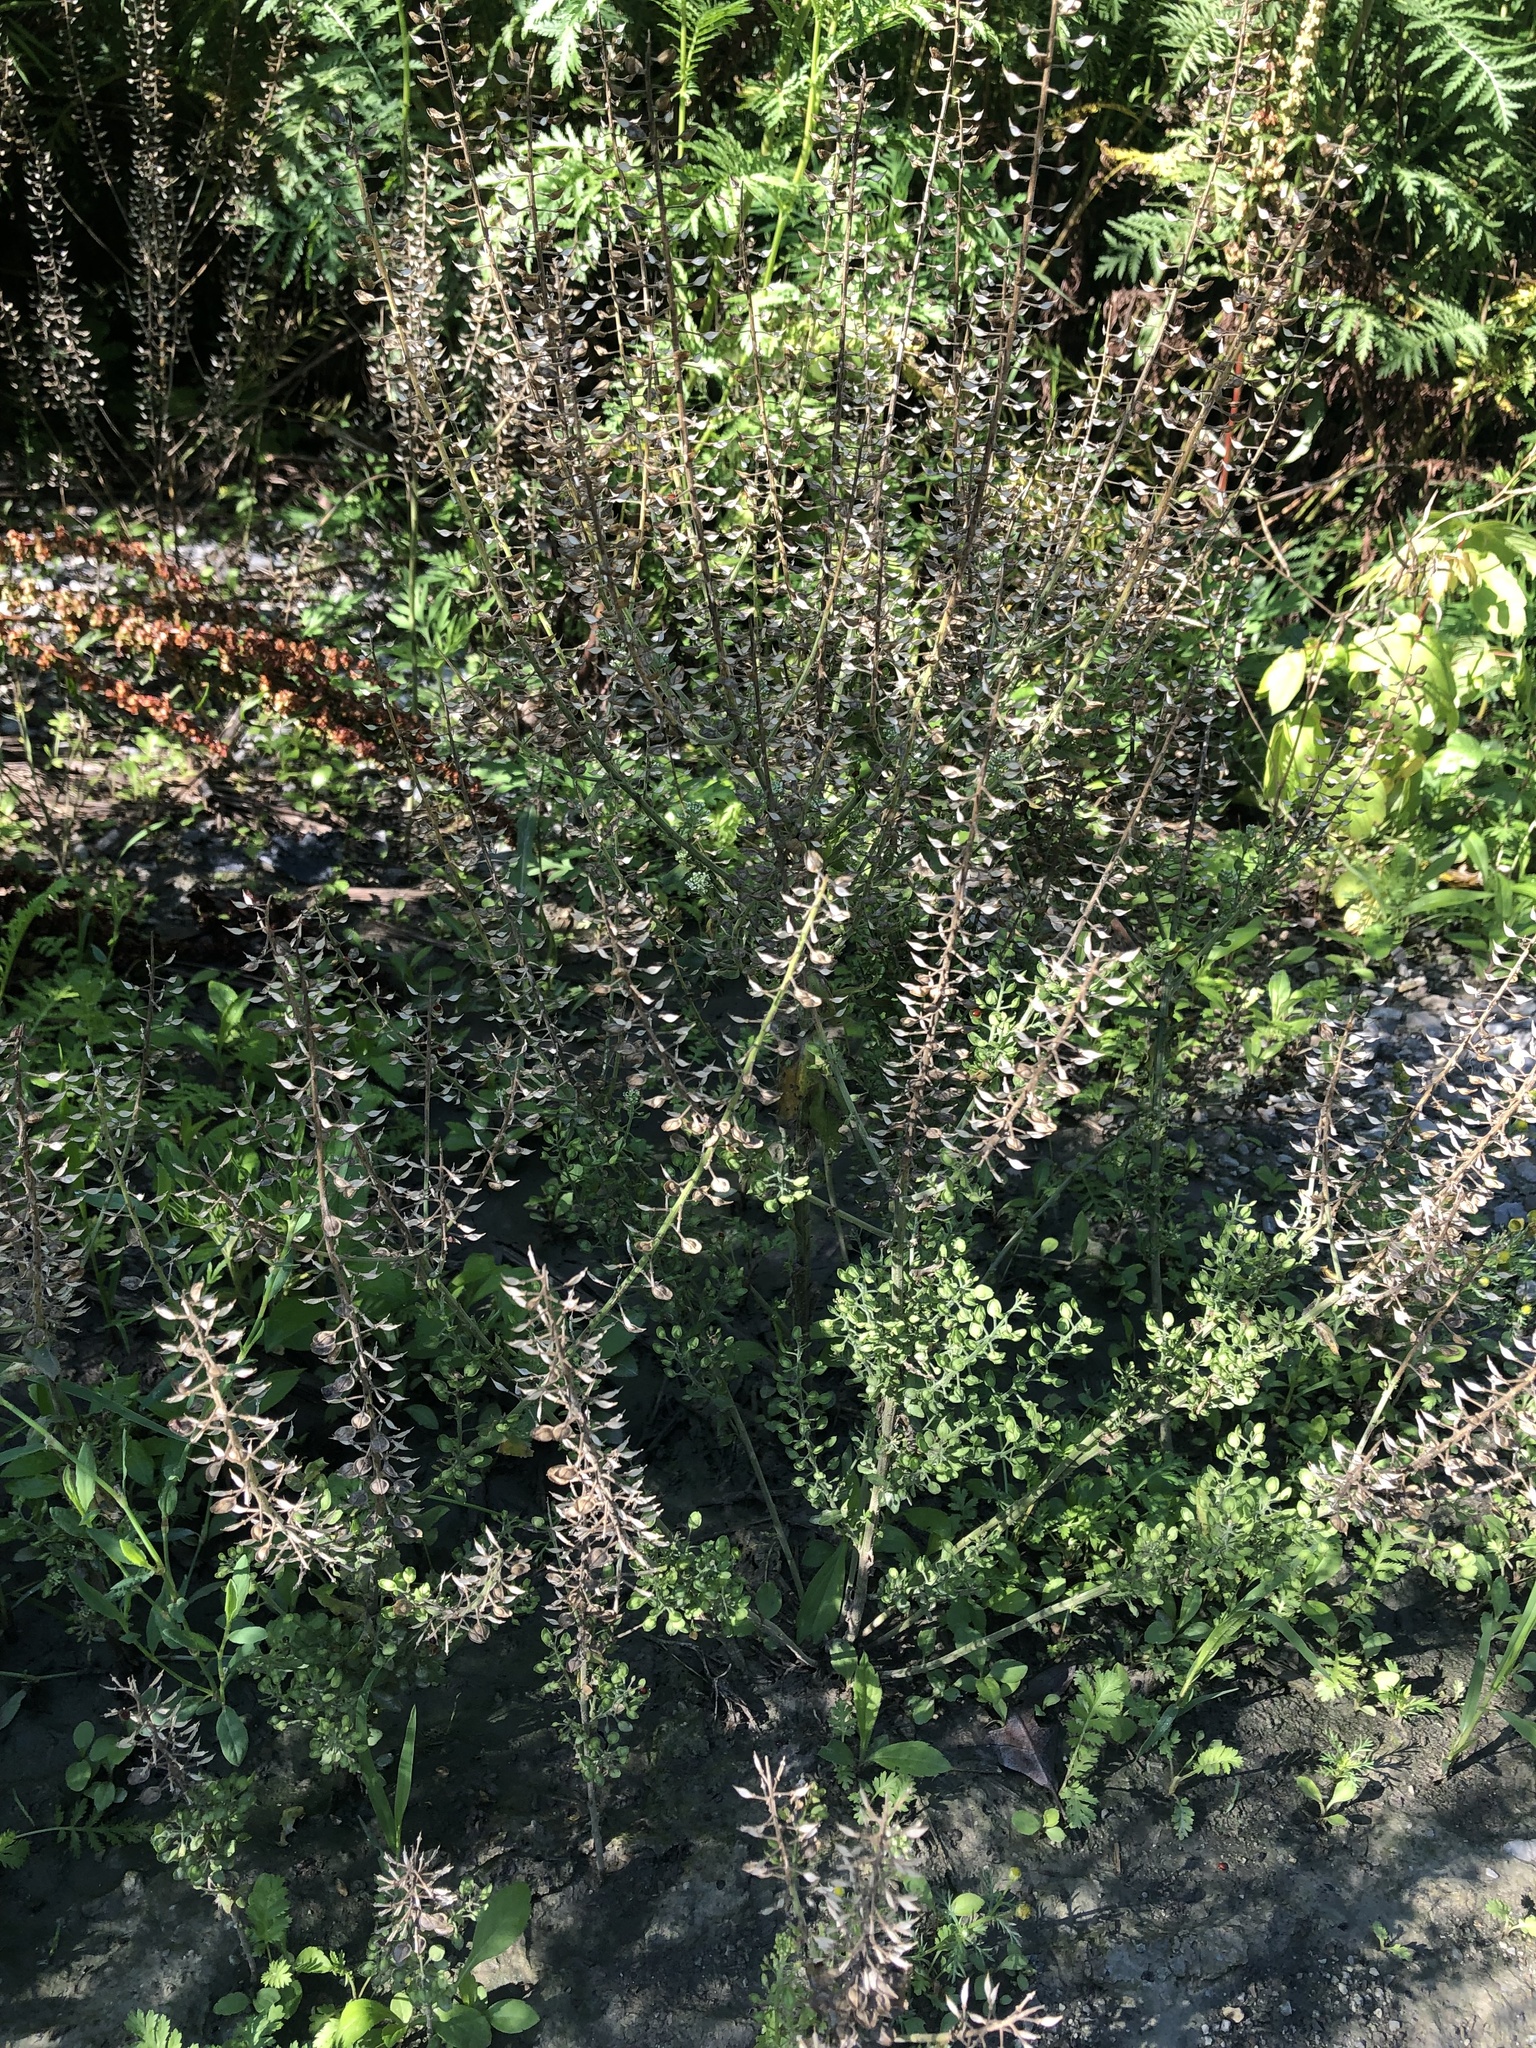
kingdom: Plantae
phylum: Tracheophyta
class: Magnoliopsida
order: Brassicales
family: Brassicaceae
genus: Lepidium
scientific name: Lepidium campestre
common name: Field pepperwort
